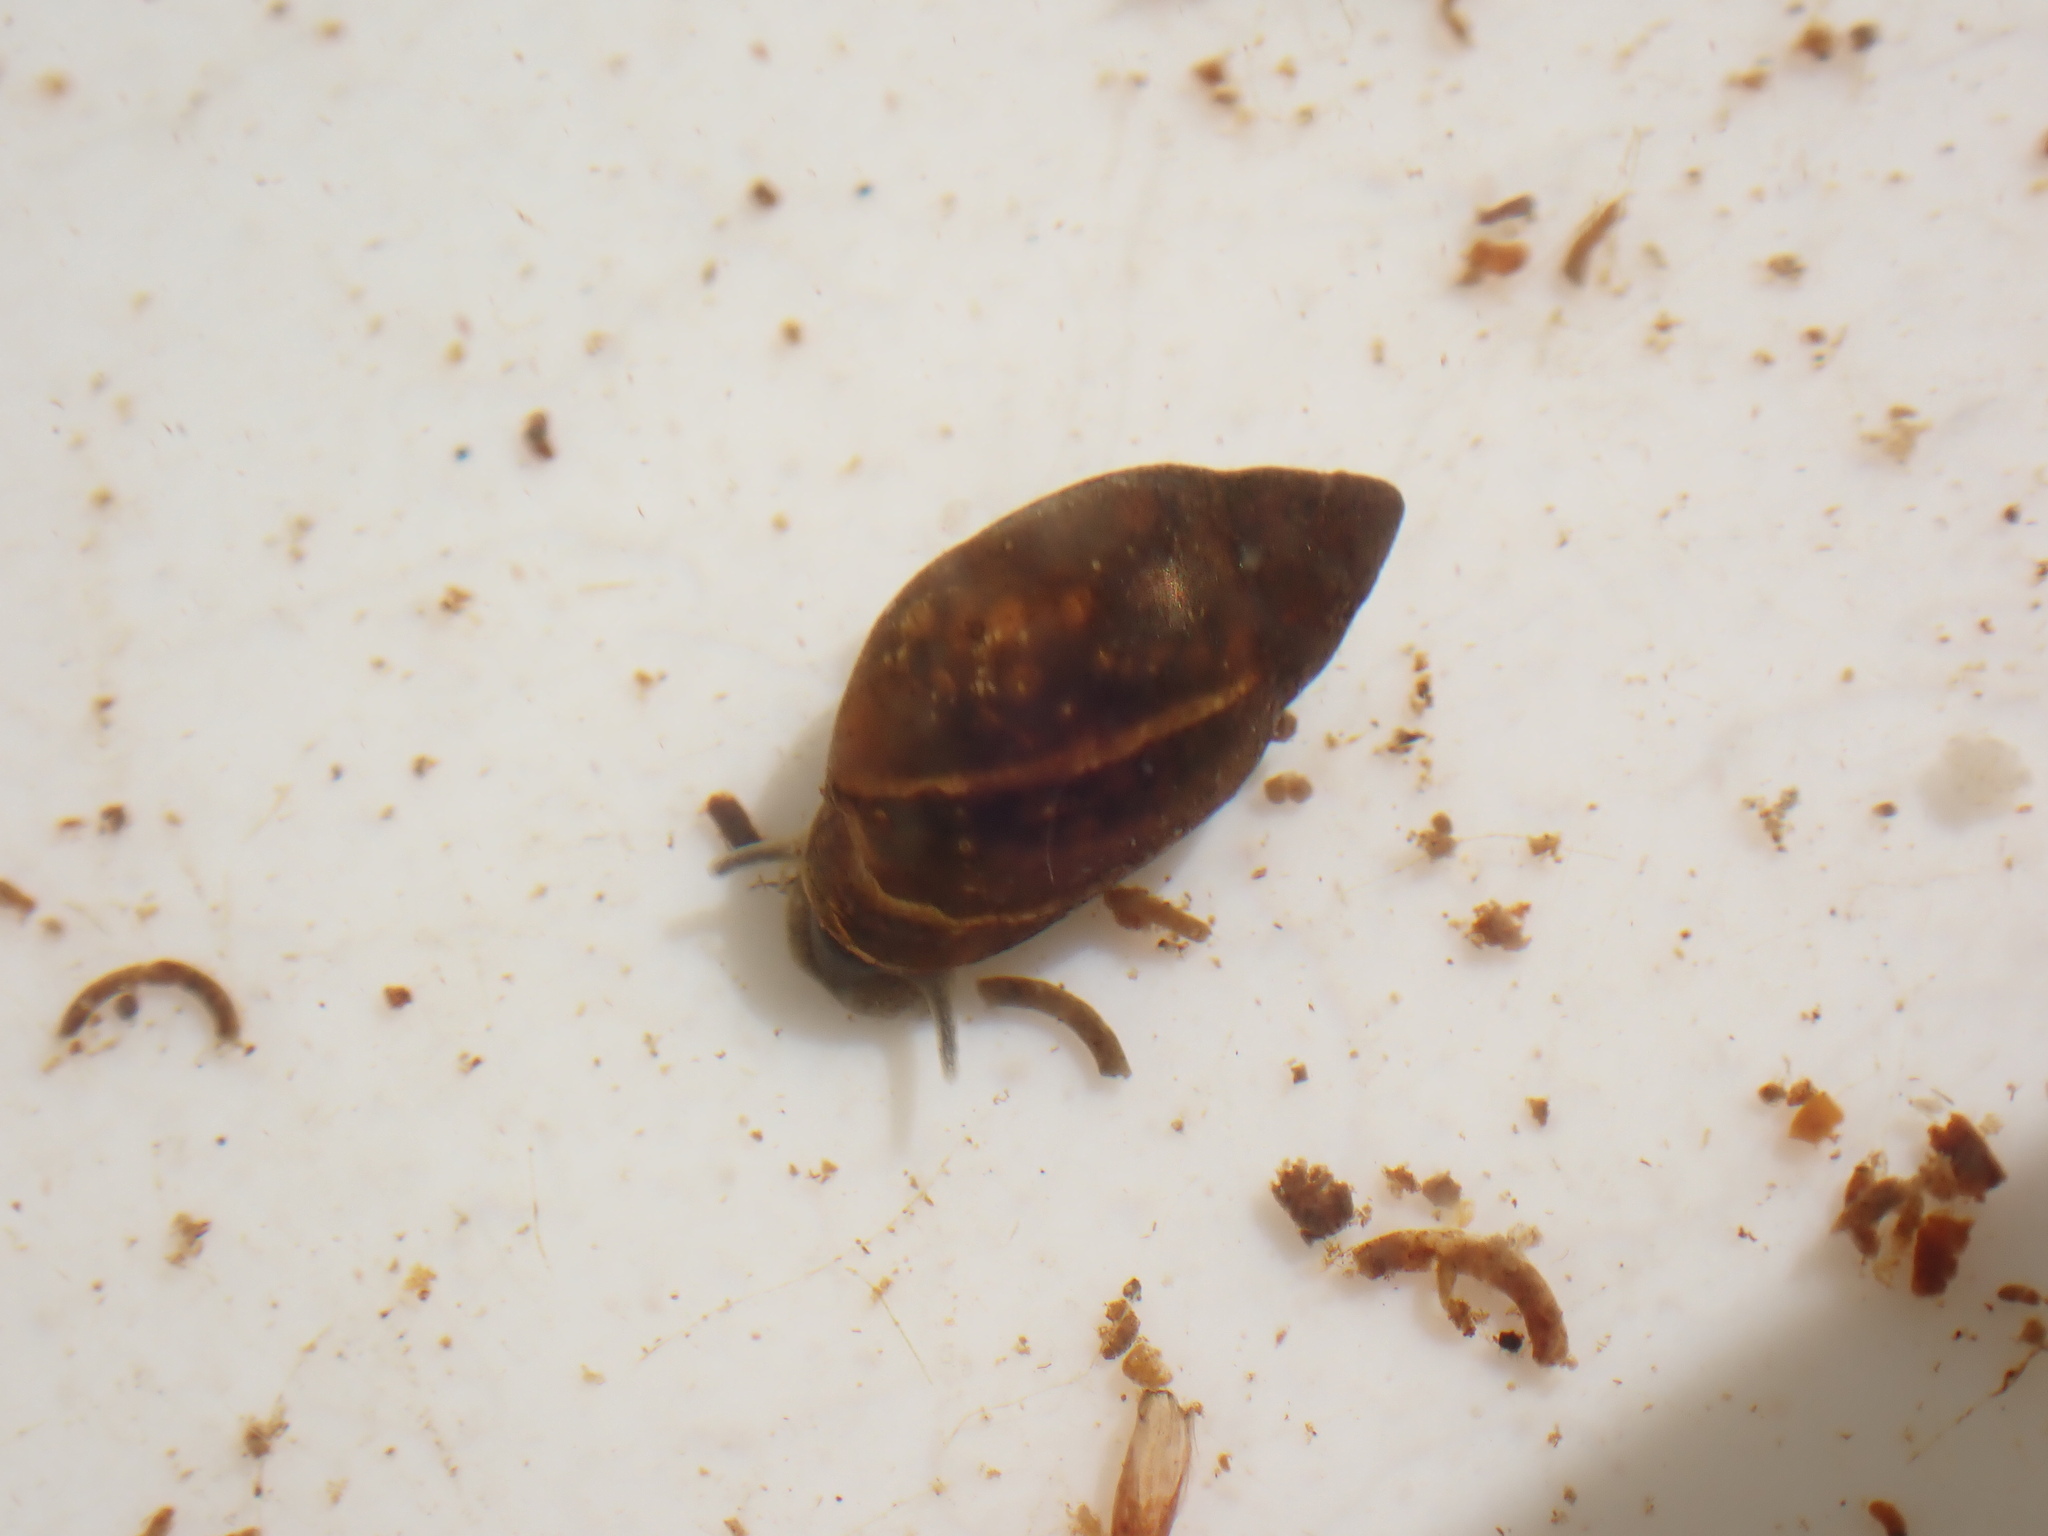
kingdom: Animalia
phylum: Mollusca
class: Gastropoda
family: Physidae
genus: Physella
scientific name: Physella acuta
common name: European physa
